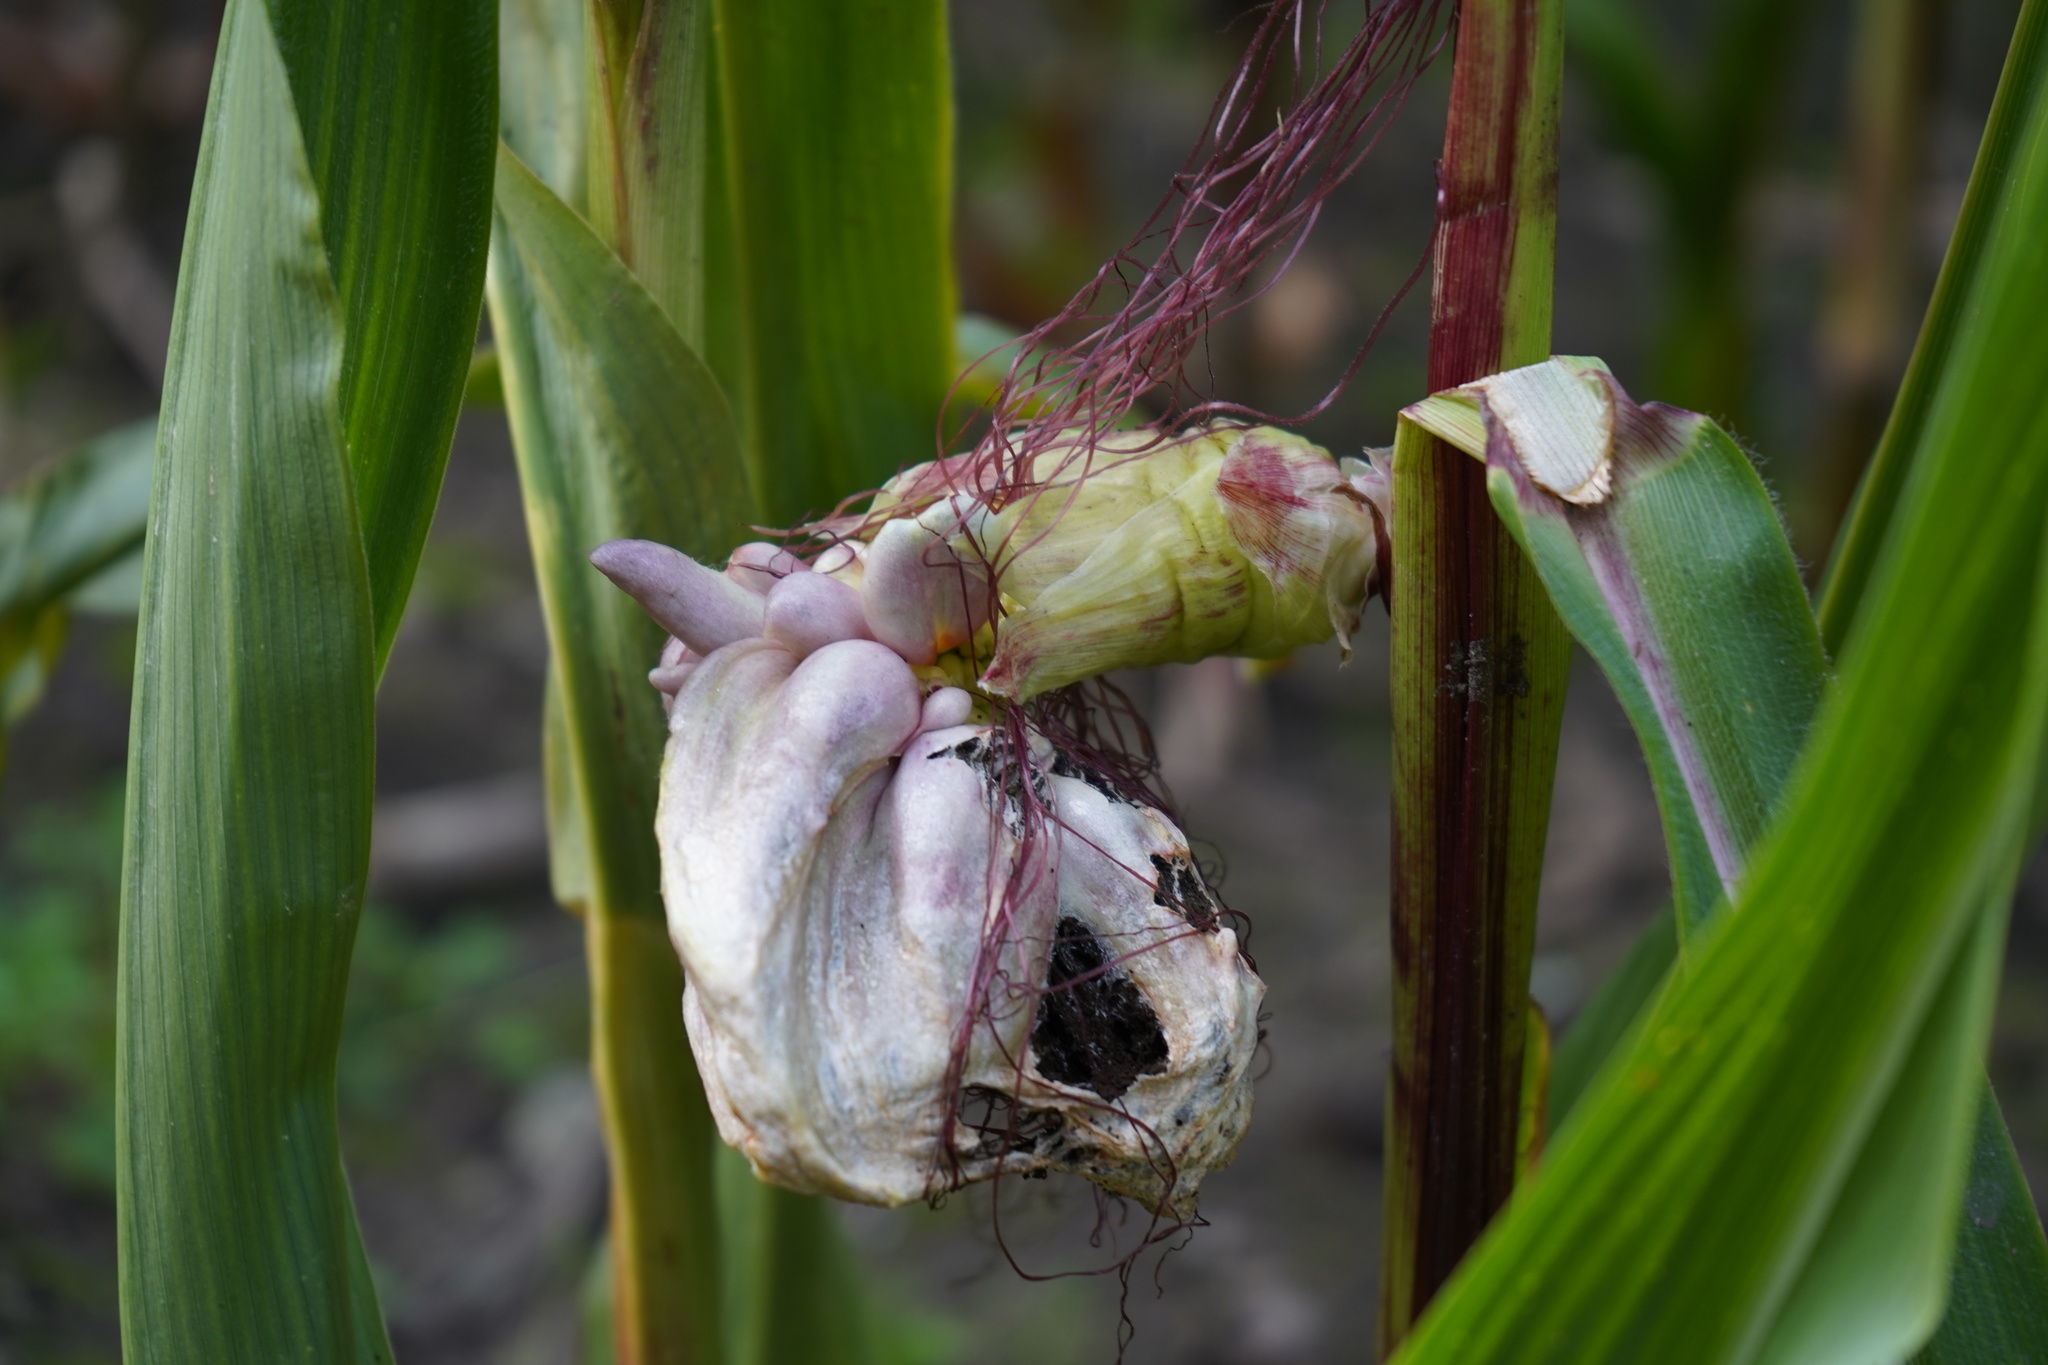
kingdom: Fungi
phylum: Basidiomycota
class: Ustilaginomycetes
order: Ustilaginales
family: Ustilaginaceae
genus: Mycosarcoma
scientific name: Mycosarcoma maydis
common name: Corn smut
